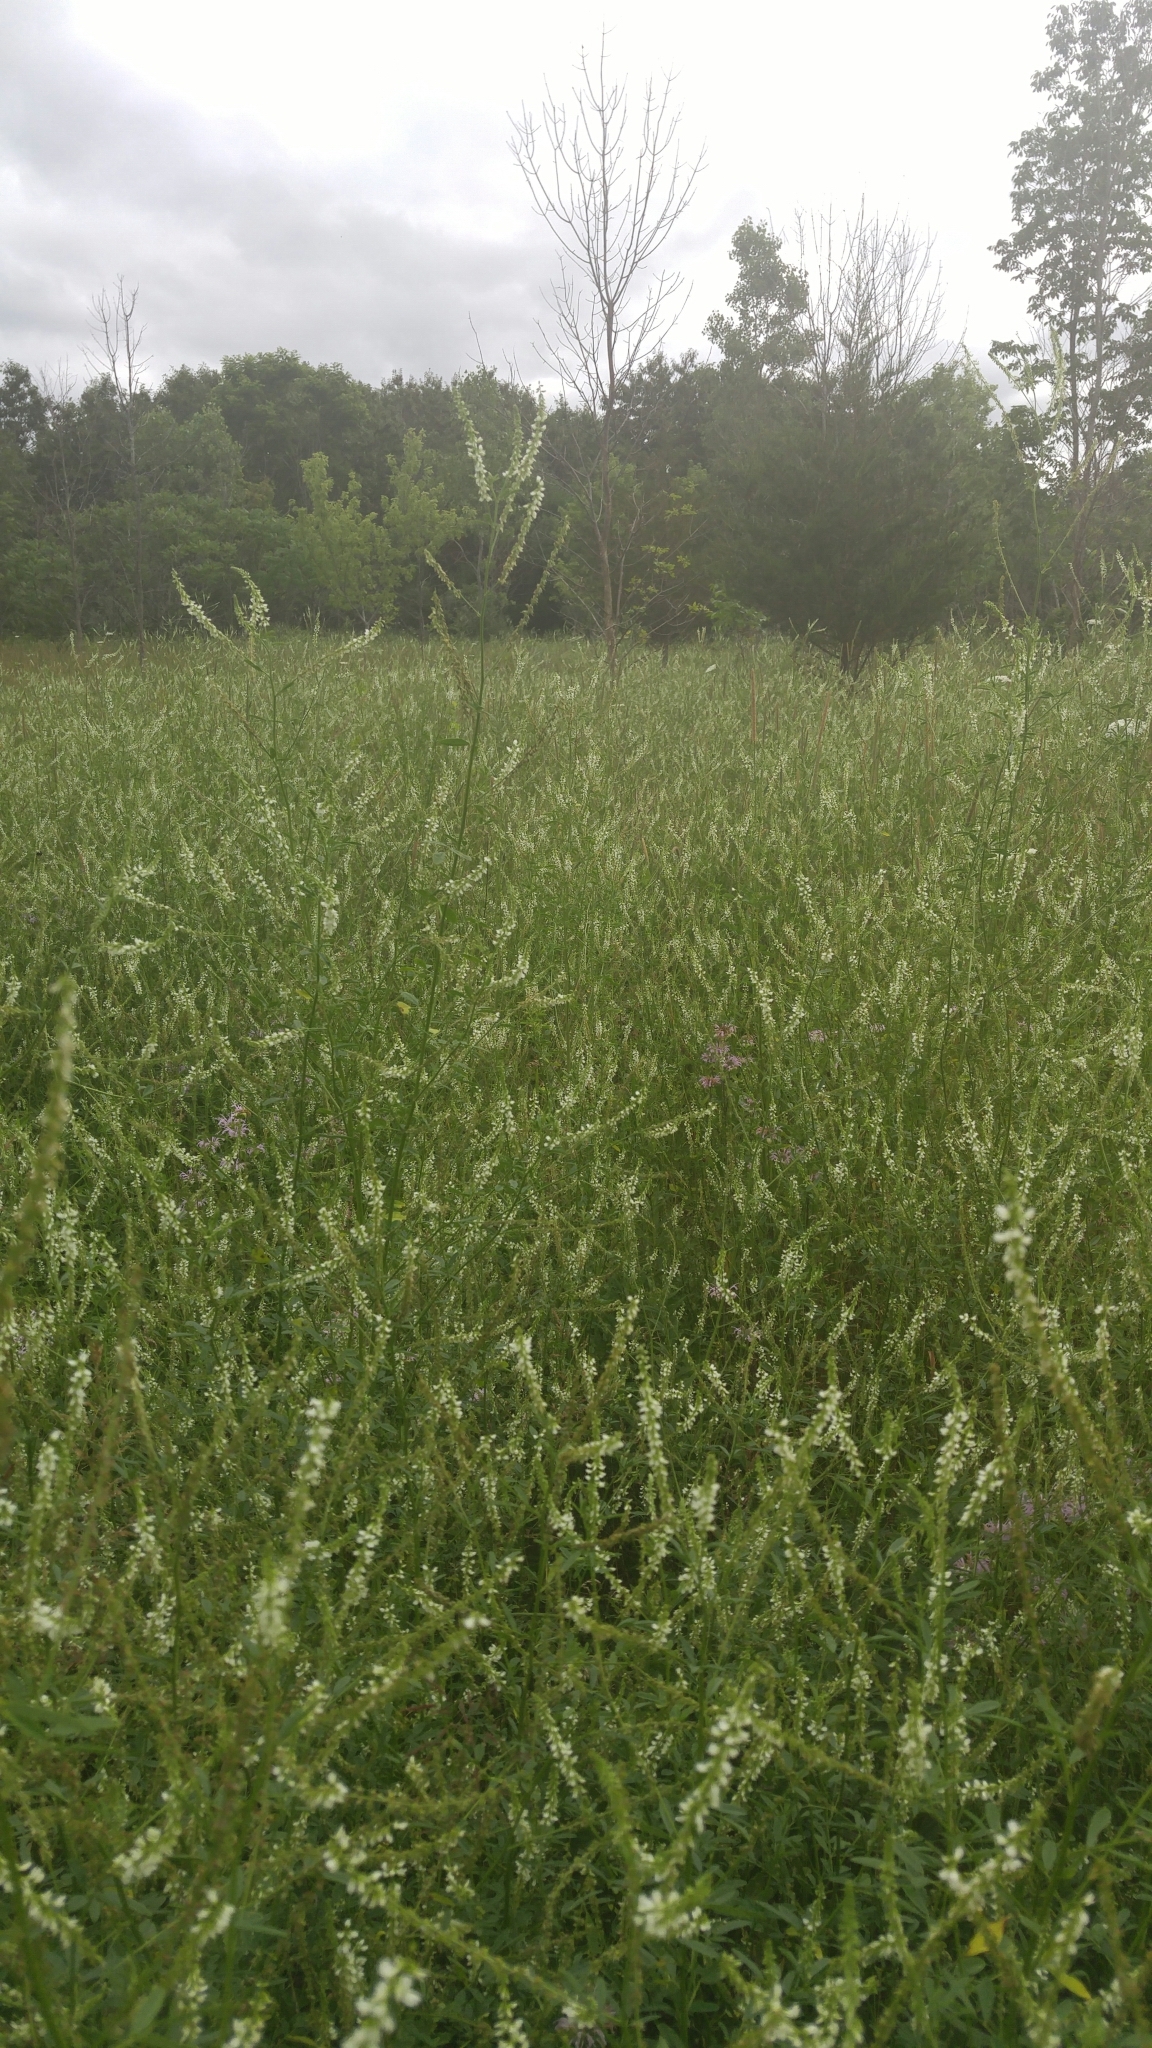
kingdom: Plantae
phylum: Tracheophyta
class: Magnoliopsida
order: Fabales
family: Fabaceae
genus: Melilotus
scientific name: Melilotus albus
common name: White melilot
